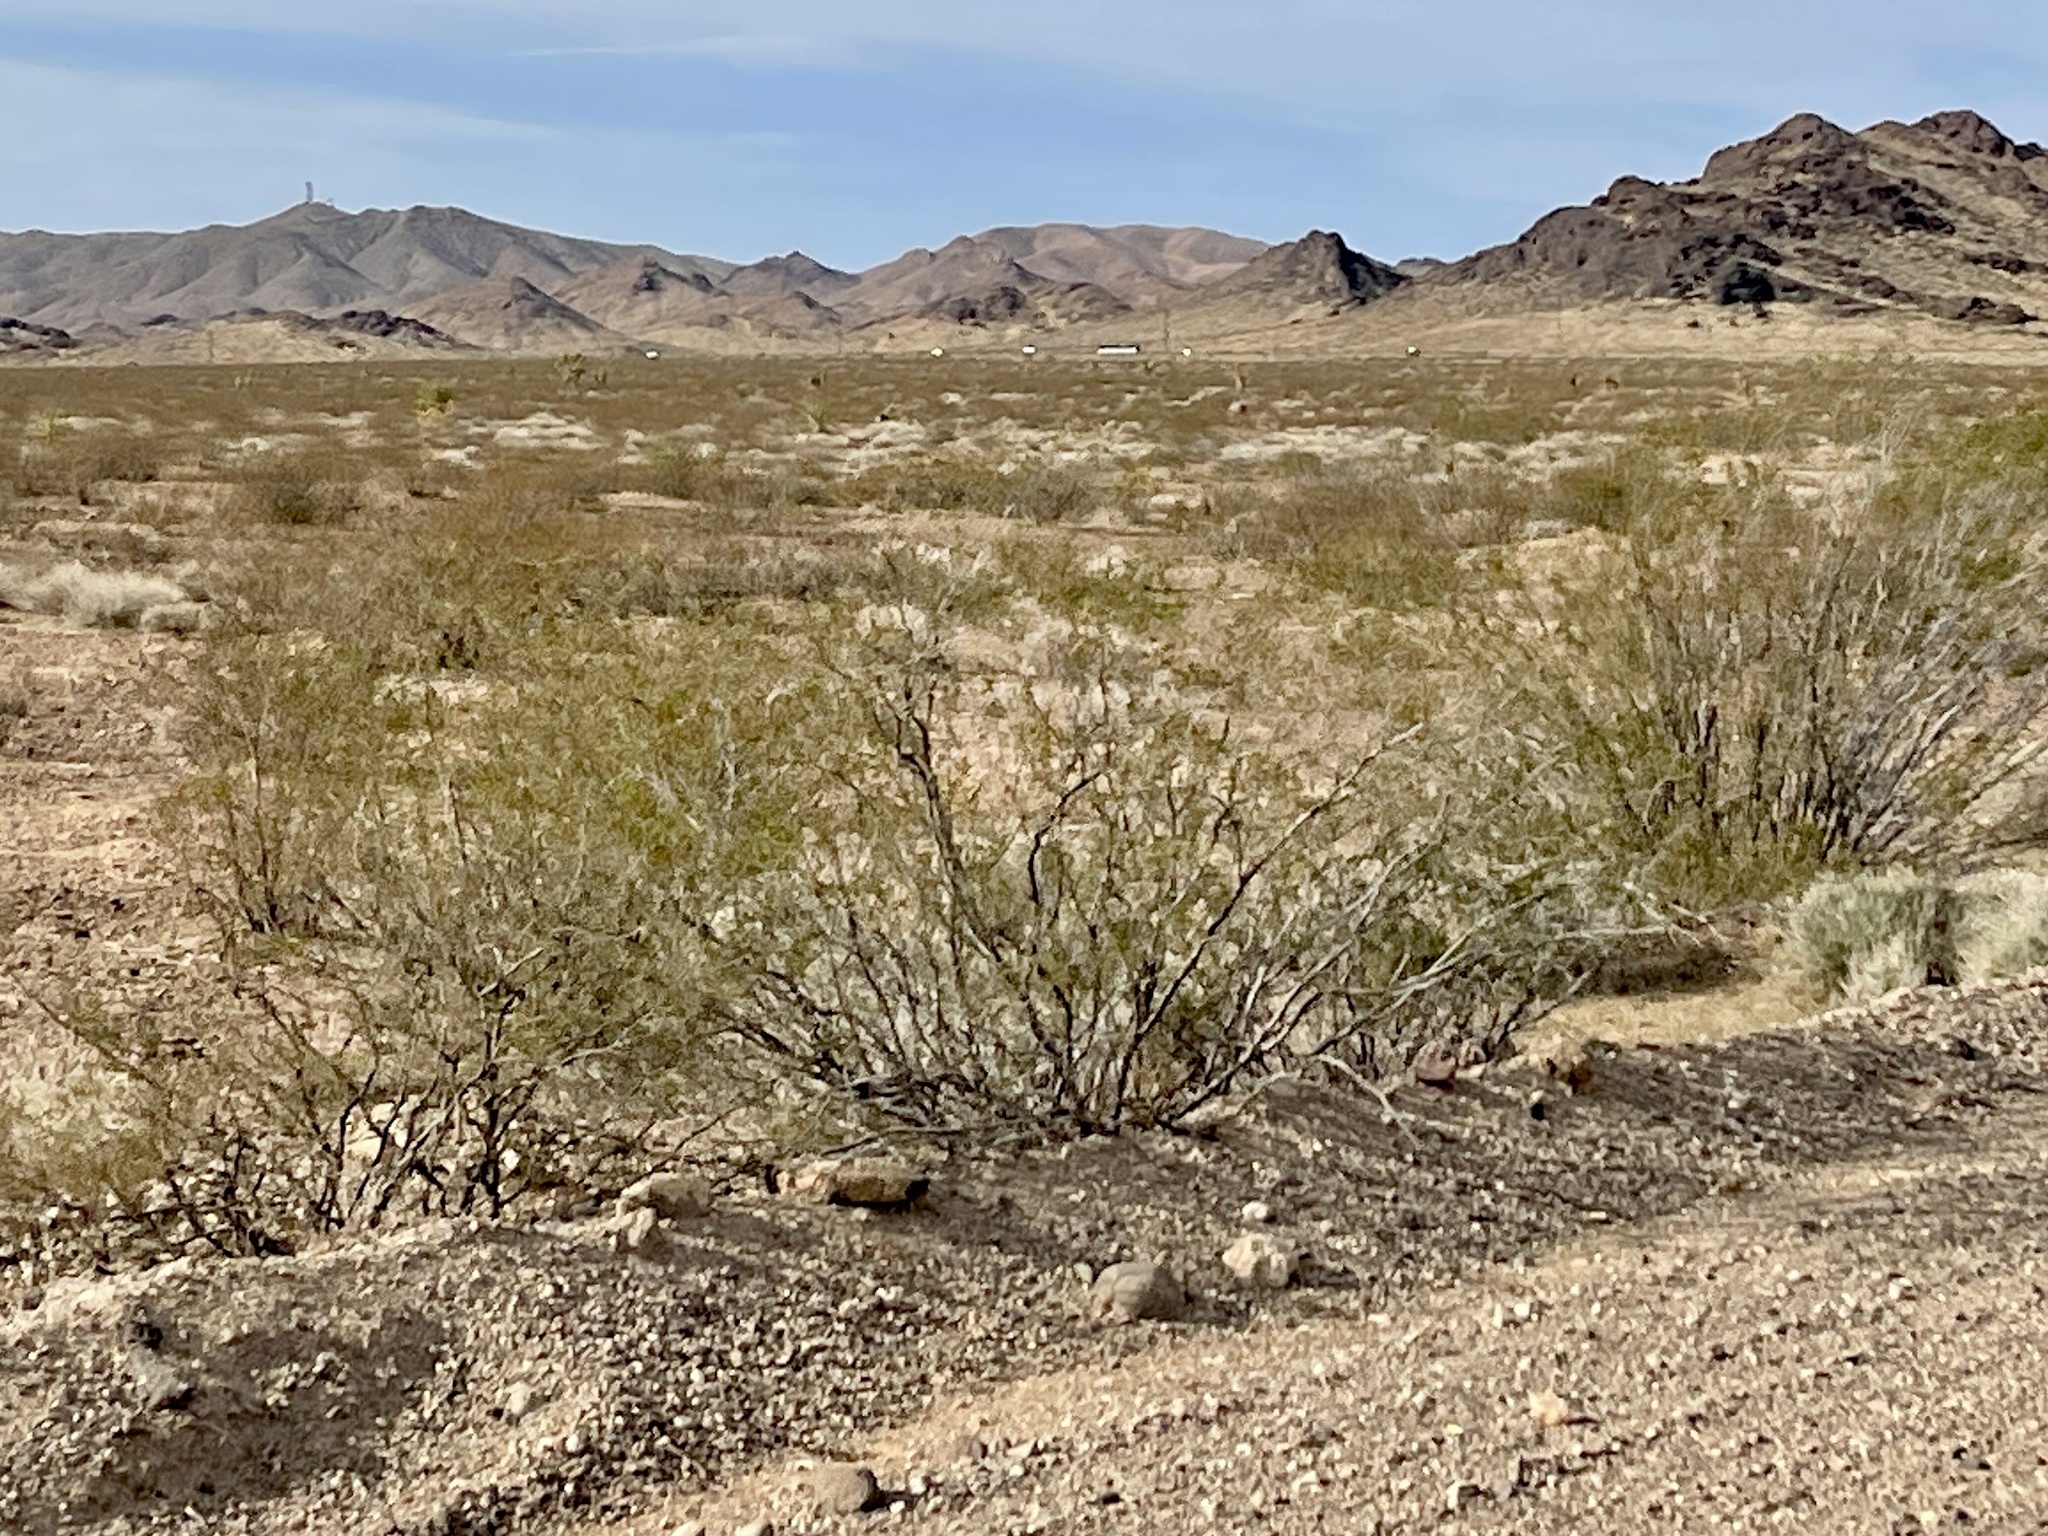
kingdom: Plantae
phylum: Tracheophyta
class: Magnoliopsida
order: Zygophyllales
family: Zygophyllaceae
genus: Larrea
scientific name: Larrea tridentata
